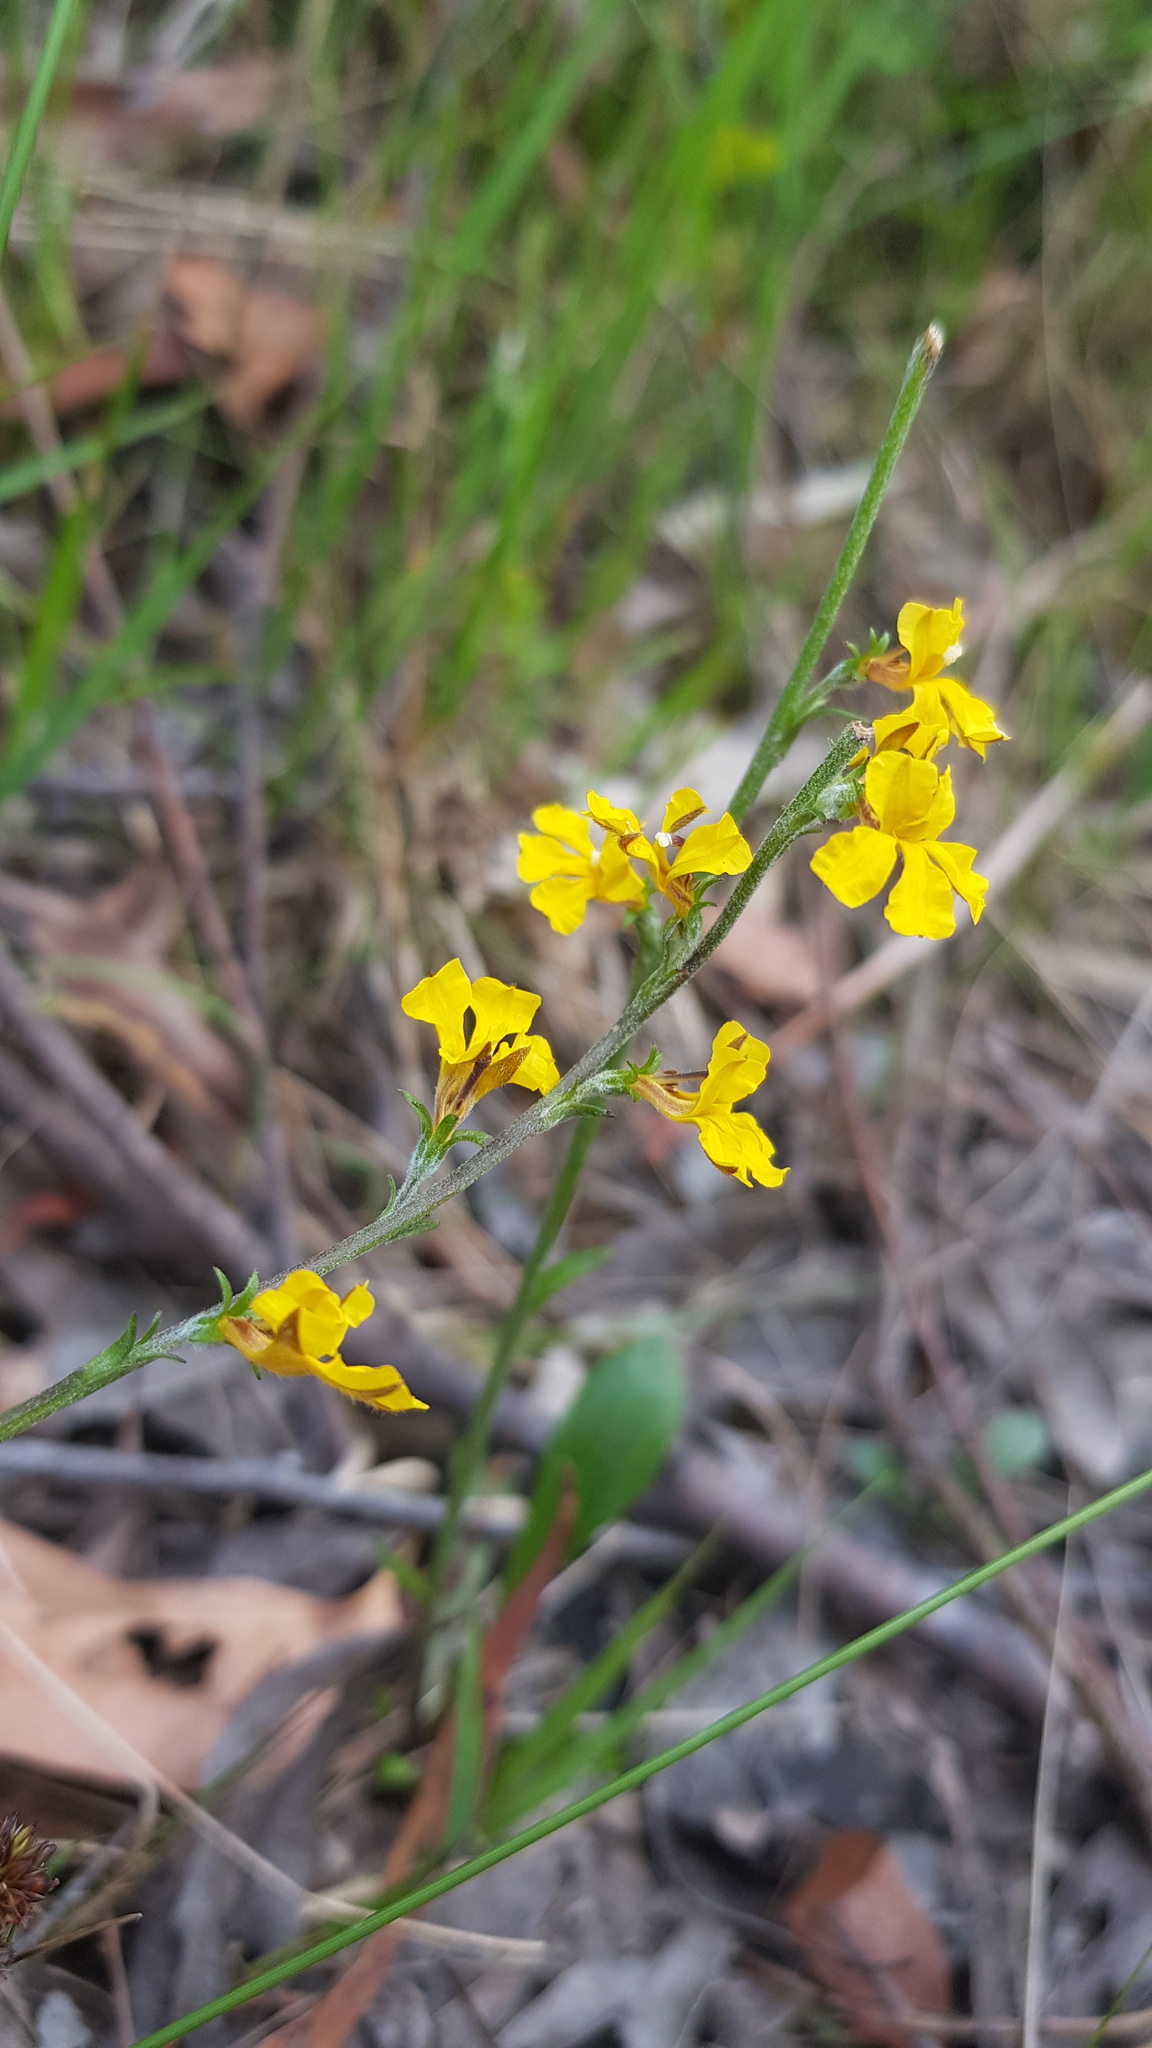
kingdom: Plantae
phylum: Tracheophyta
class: Magnoliopsida
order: Asterales
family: Goodeniaceae
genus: Goodenia
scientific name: Goodenia bellidifolia
